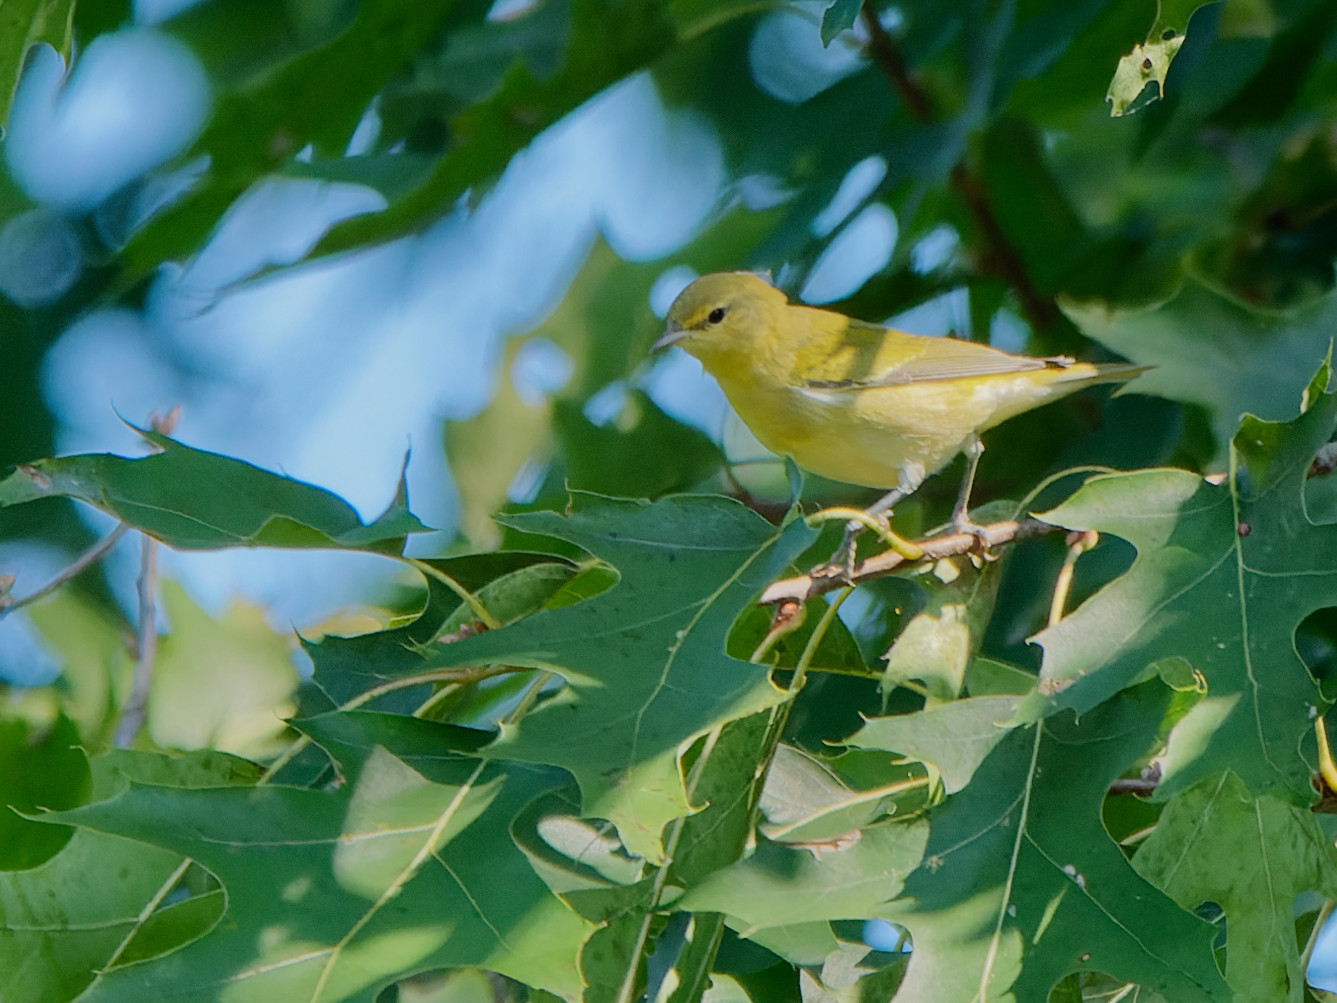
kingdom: Animalia
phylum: Chordata
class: Aves
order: Passeriformes
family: Parulidae
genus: Leiothlypis
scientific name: Leiothlypis peregrina
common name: Tennessee warbler
